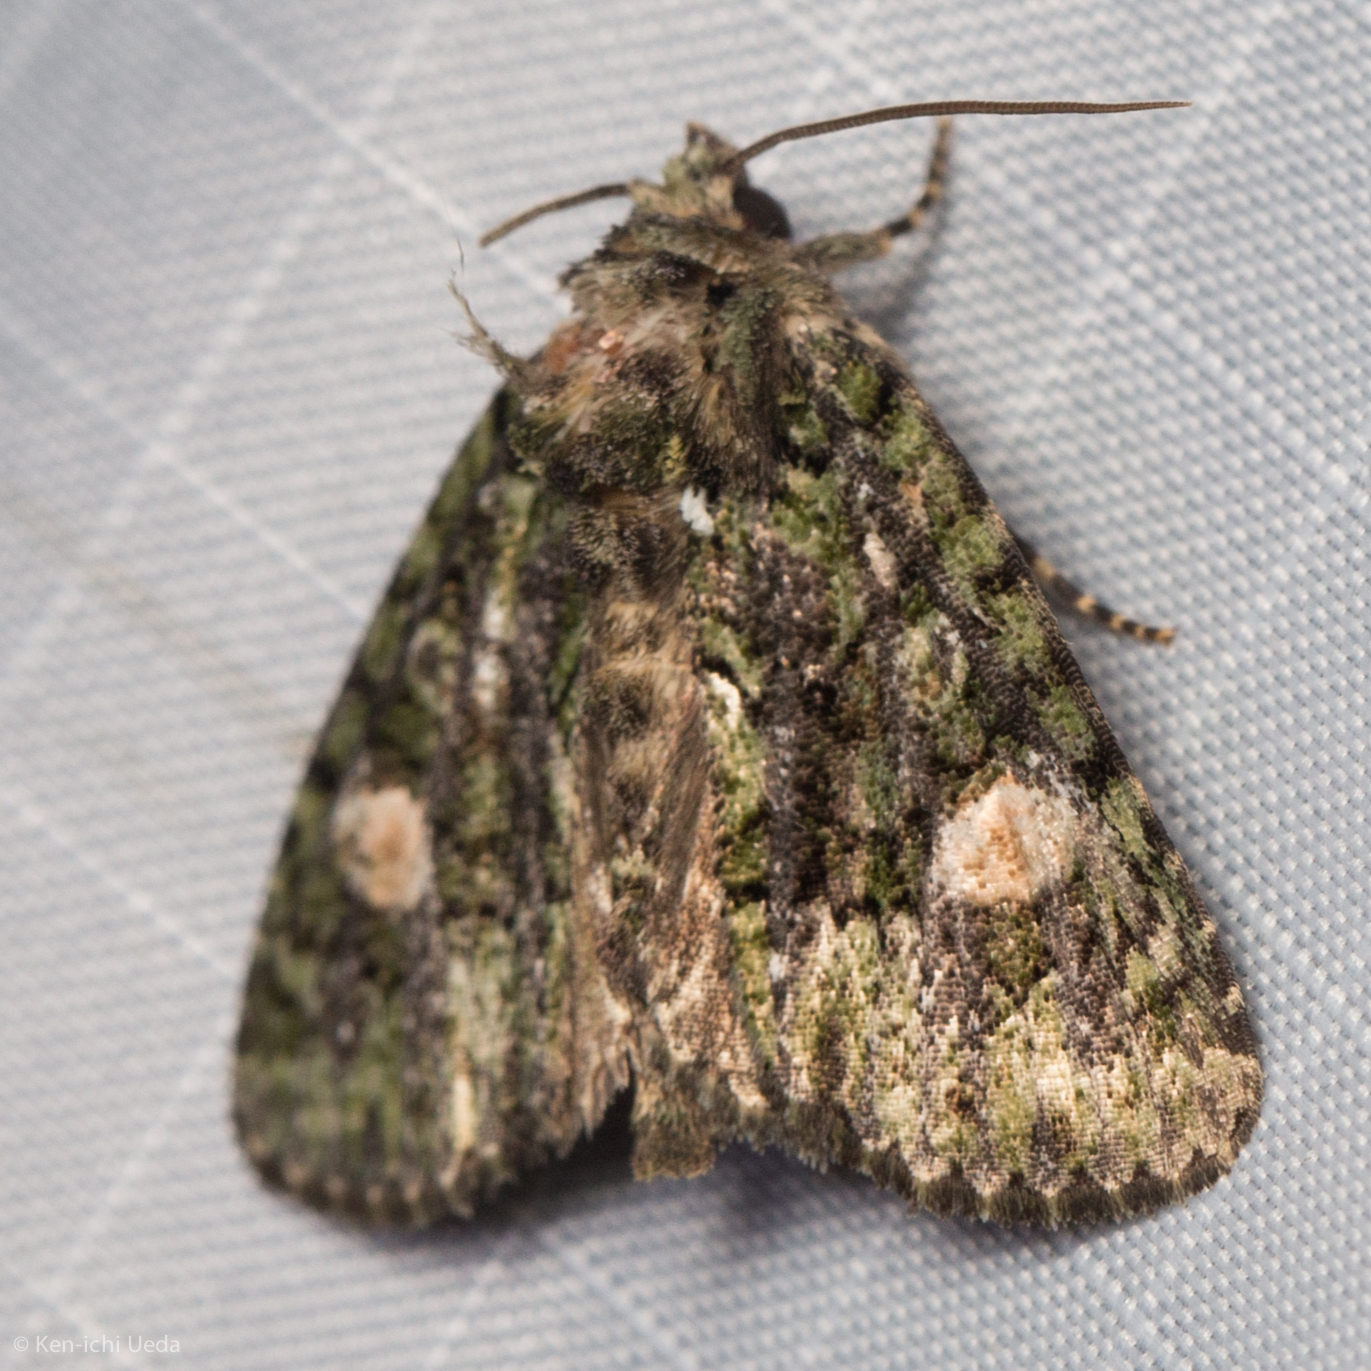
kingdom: Animalia
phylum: Arthropoda
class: Insecta
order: Lepidoptera
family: Noctuidae
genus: Phosphila
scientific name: Phosphila miselioides
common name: Spotted phosphila moth
